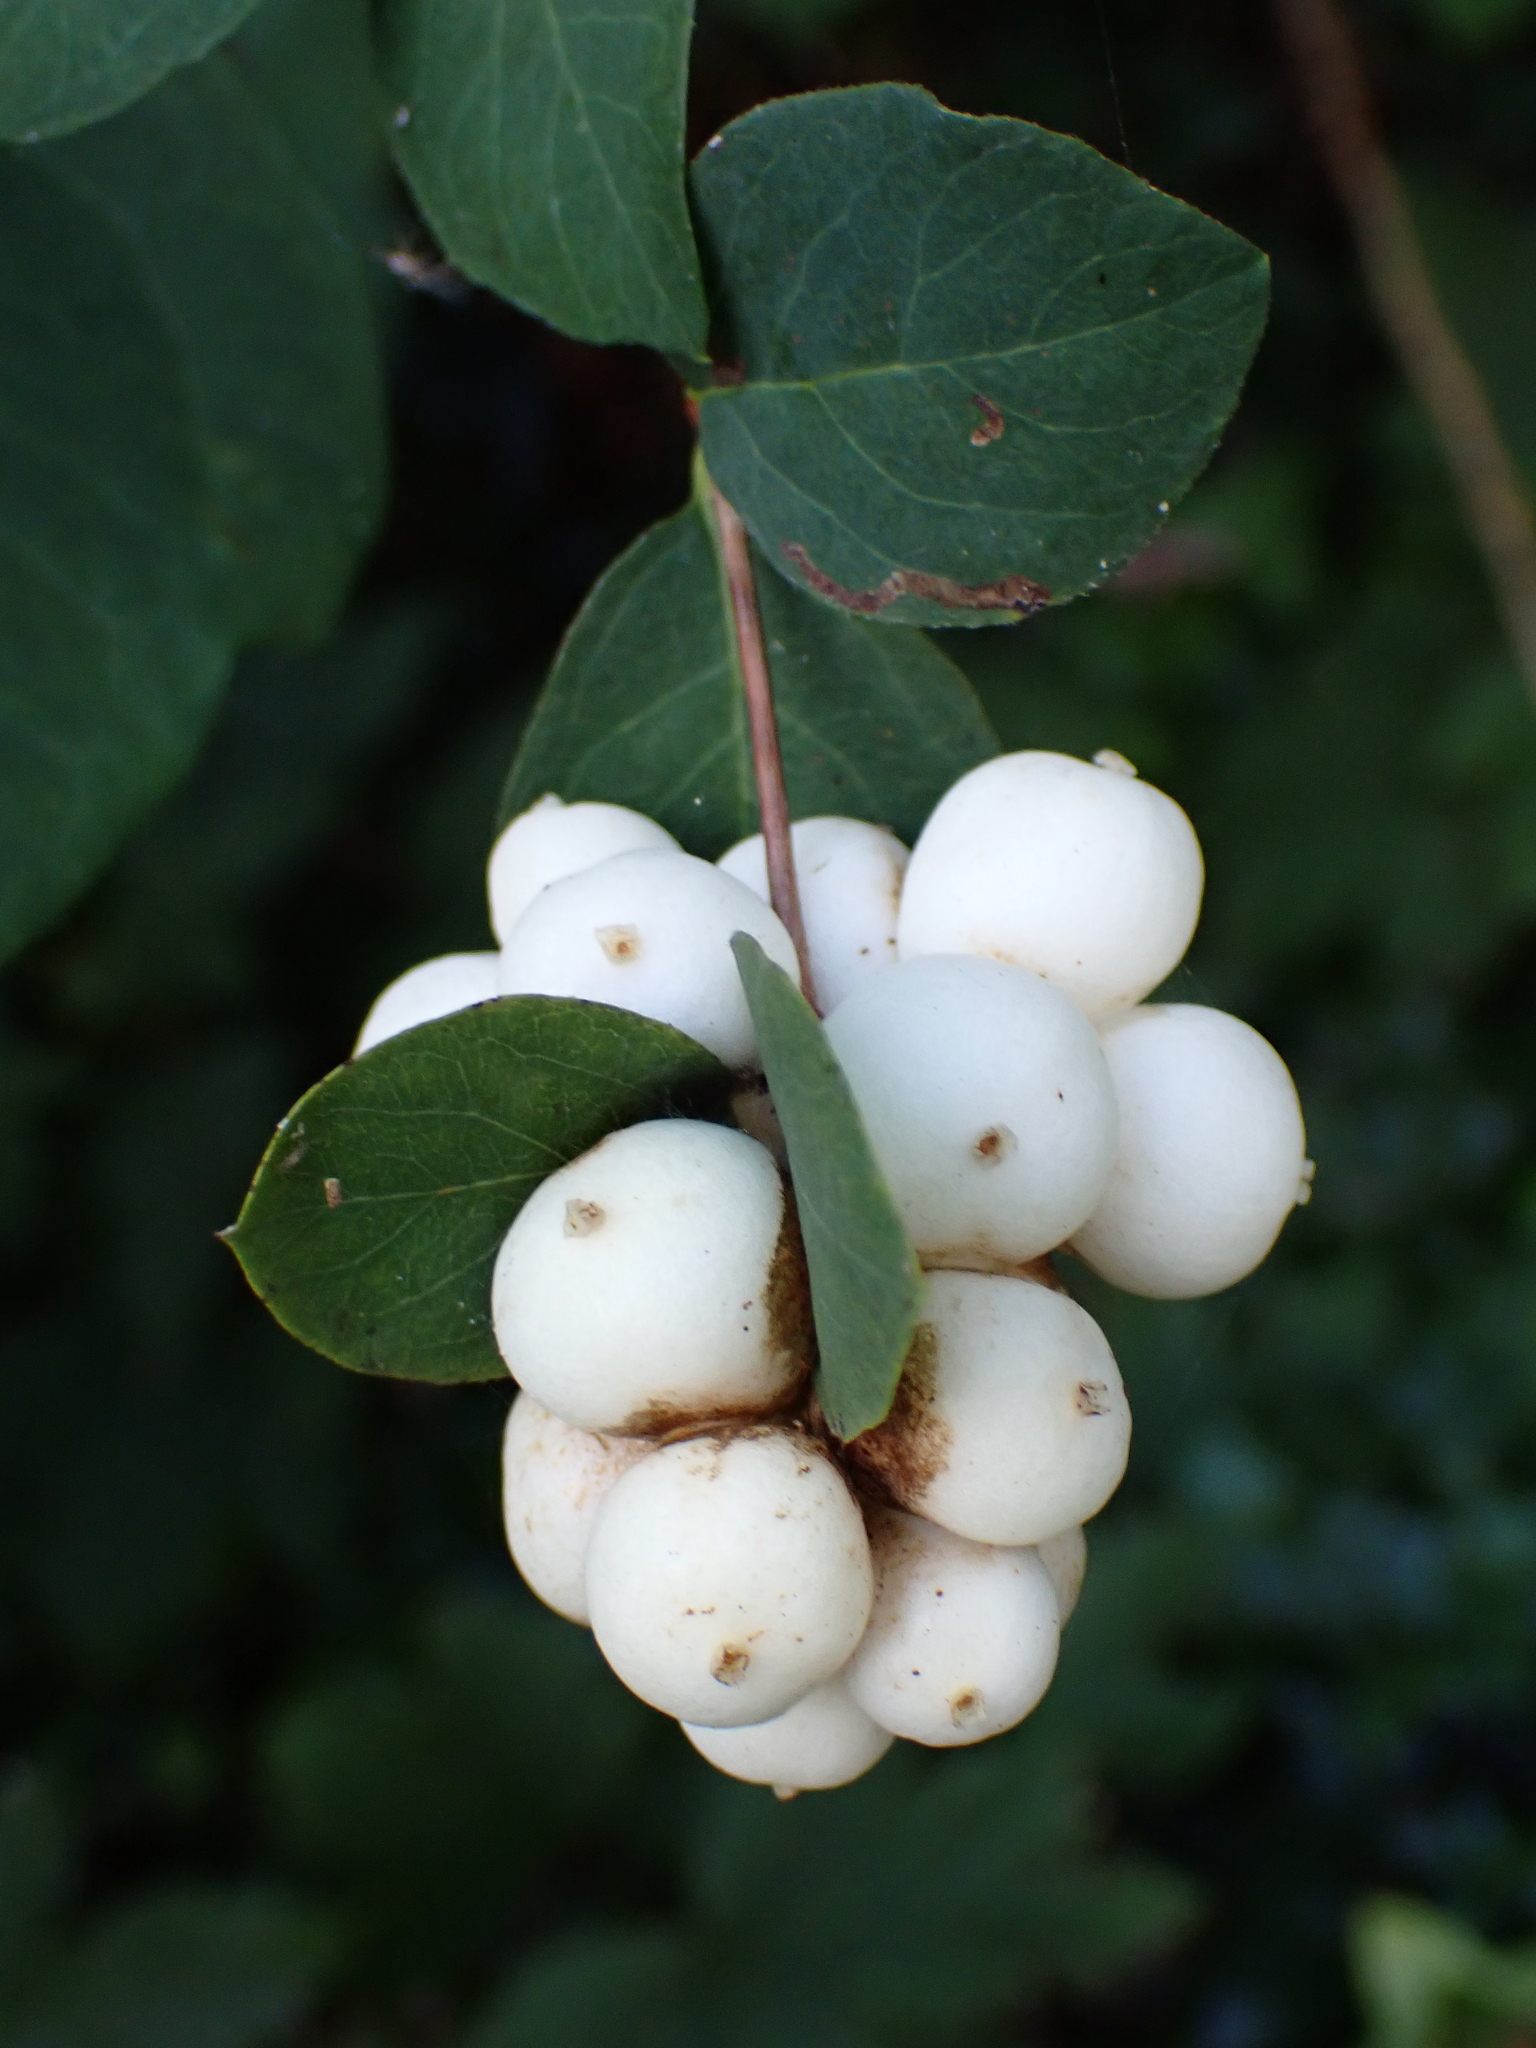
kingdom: Plantae
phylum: Tracheophyta
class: Magnoliopsida
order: Dipsacales
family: Caprifoliaceae
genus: Symphoricarpos
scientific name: Symphoricarpos albus
